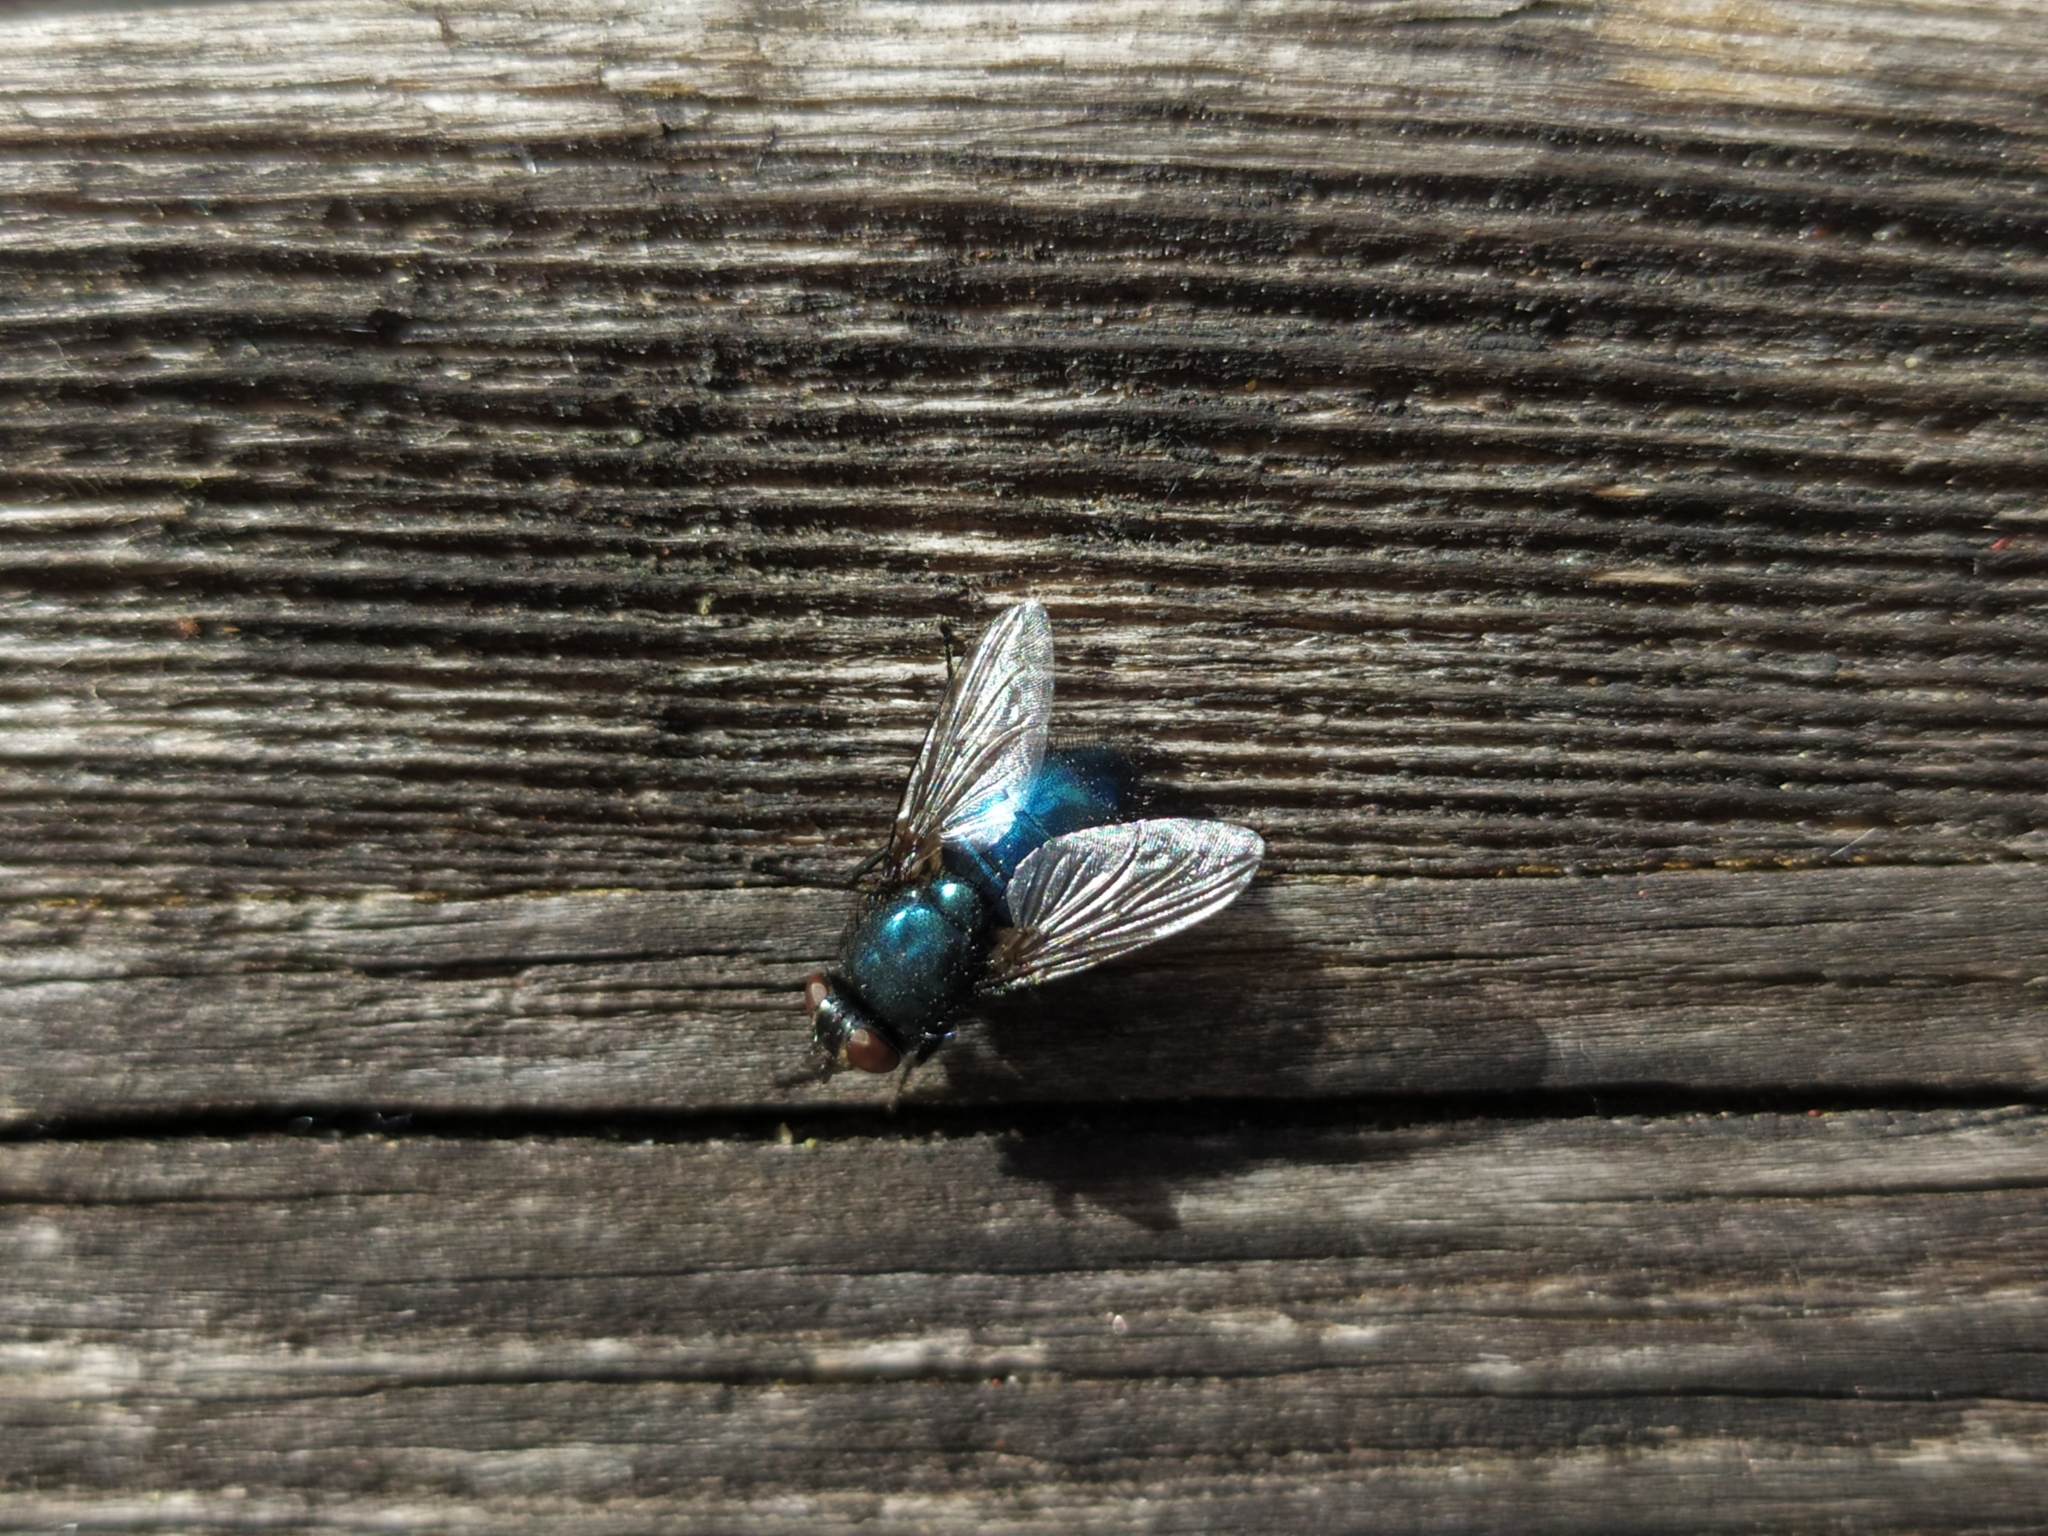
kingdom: Animalia
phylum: Arthropoda
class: Insecta
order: Diptera
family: Calliphoridae
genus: Protophormia
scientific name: Protophormia terraenovae
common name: Blackbottle
